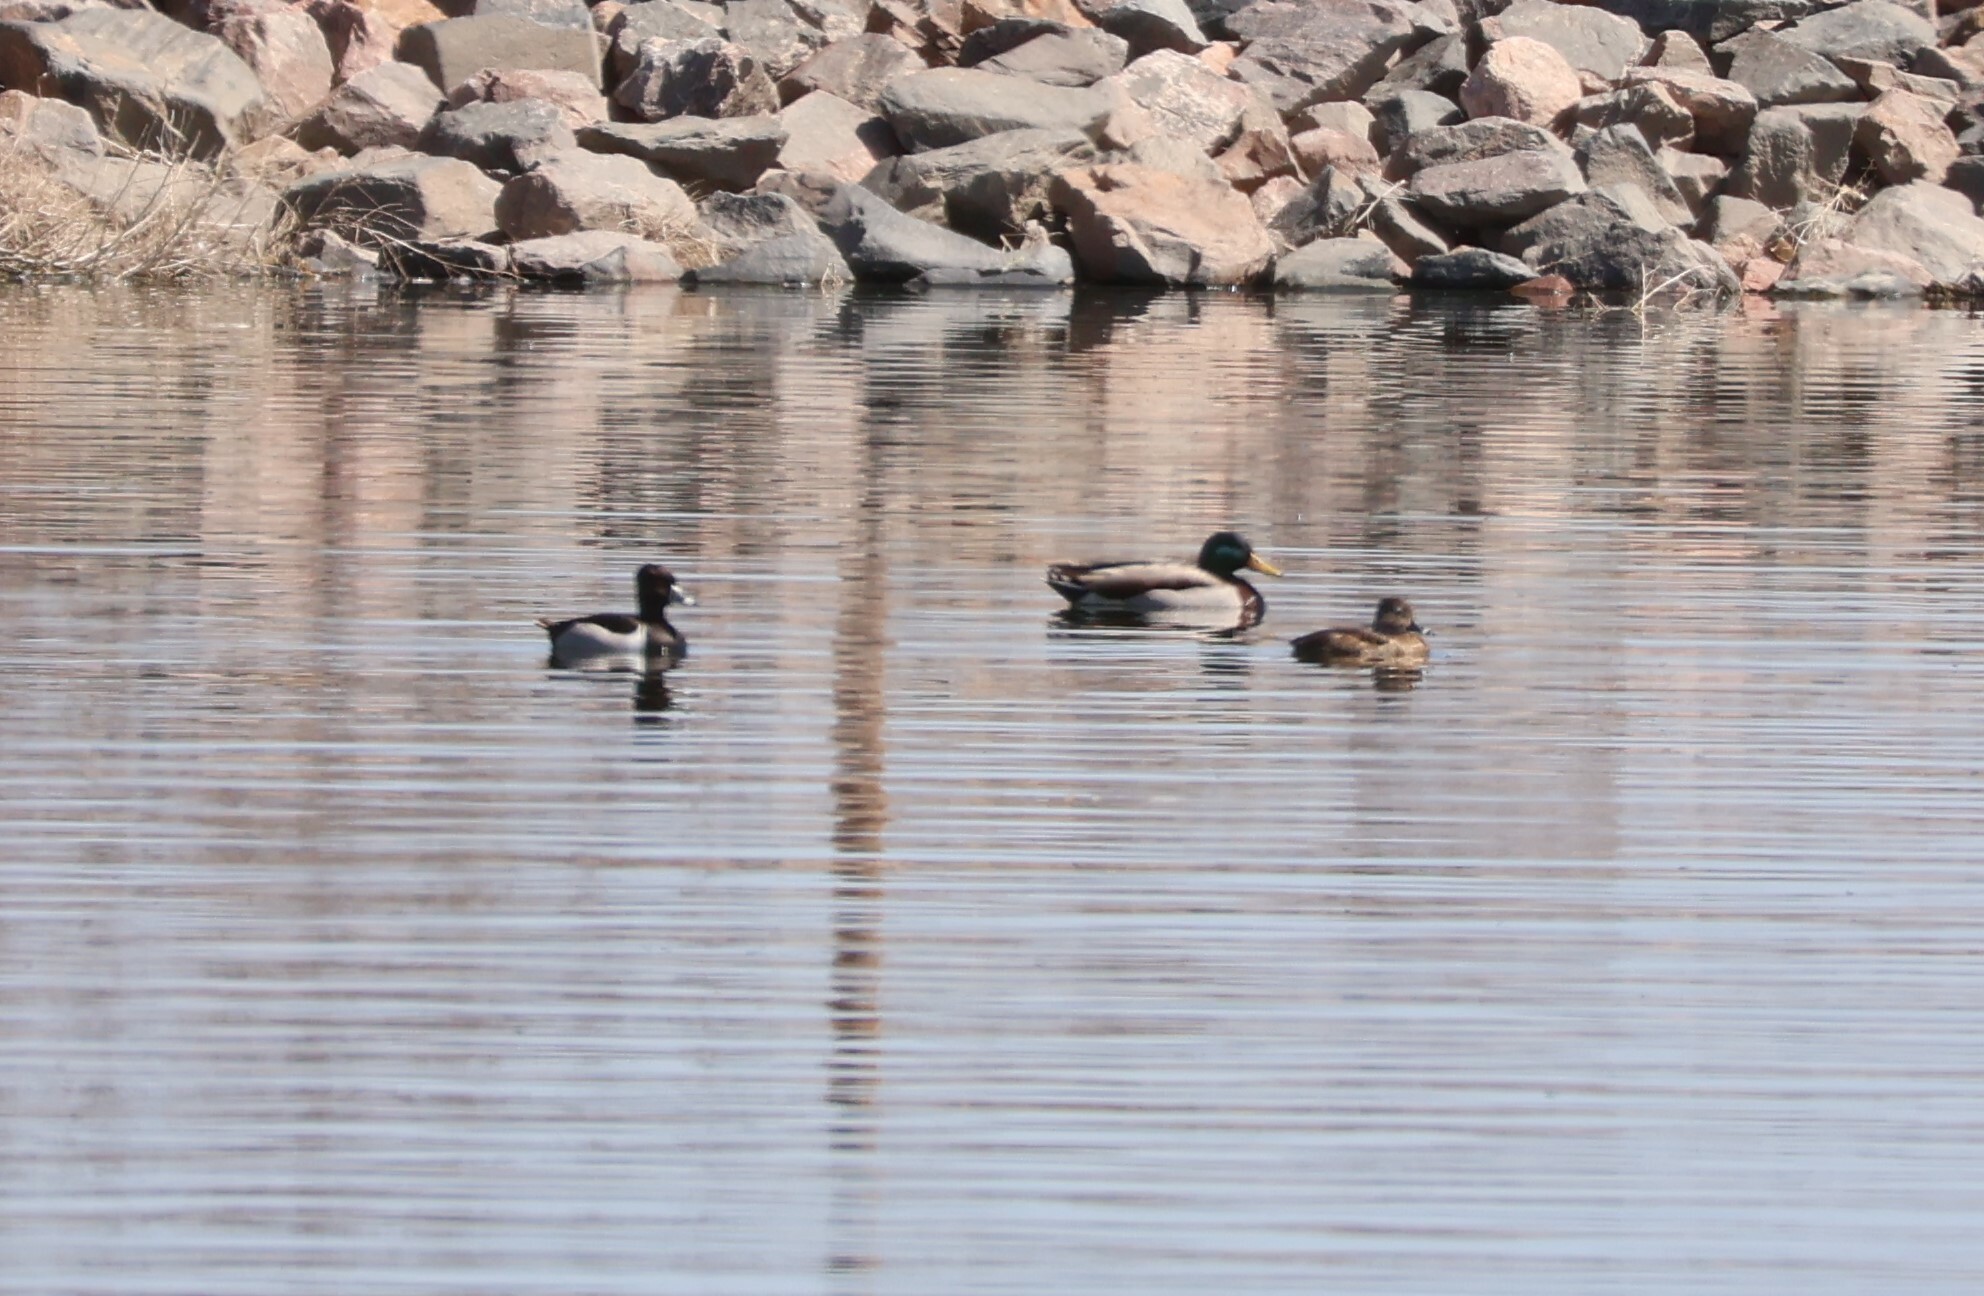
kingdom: Animalia
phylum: Chordata
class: Aves
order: Anseriformes
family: Anatidae
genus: Aythya
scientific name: Aythya collaris
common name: Ring-necked duck
